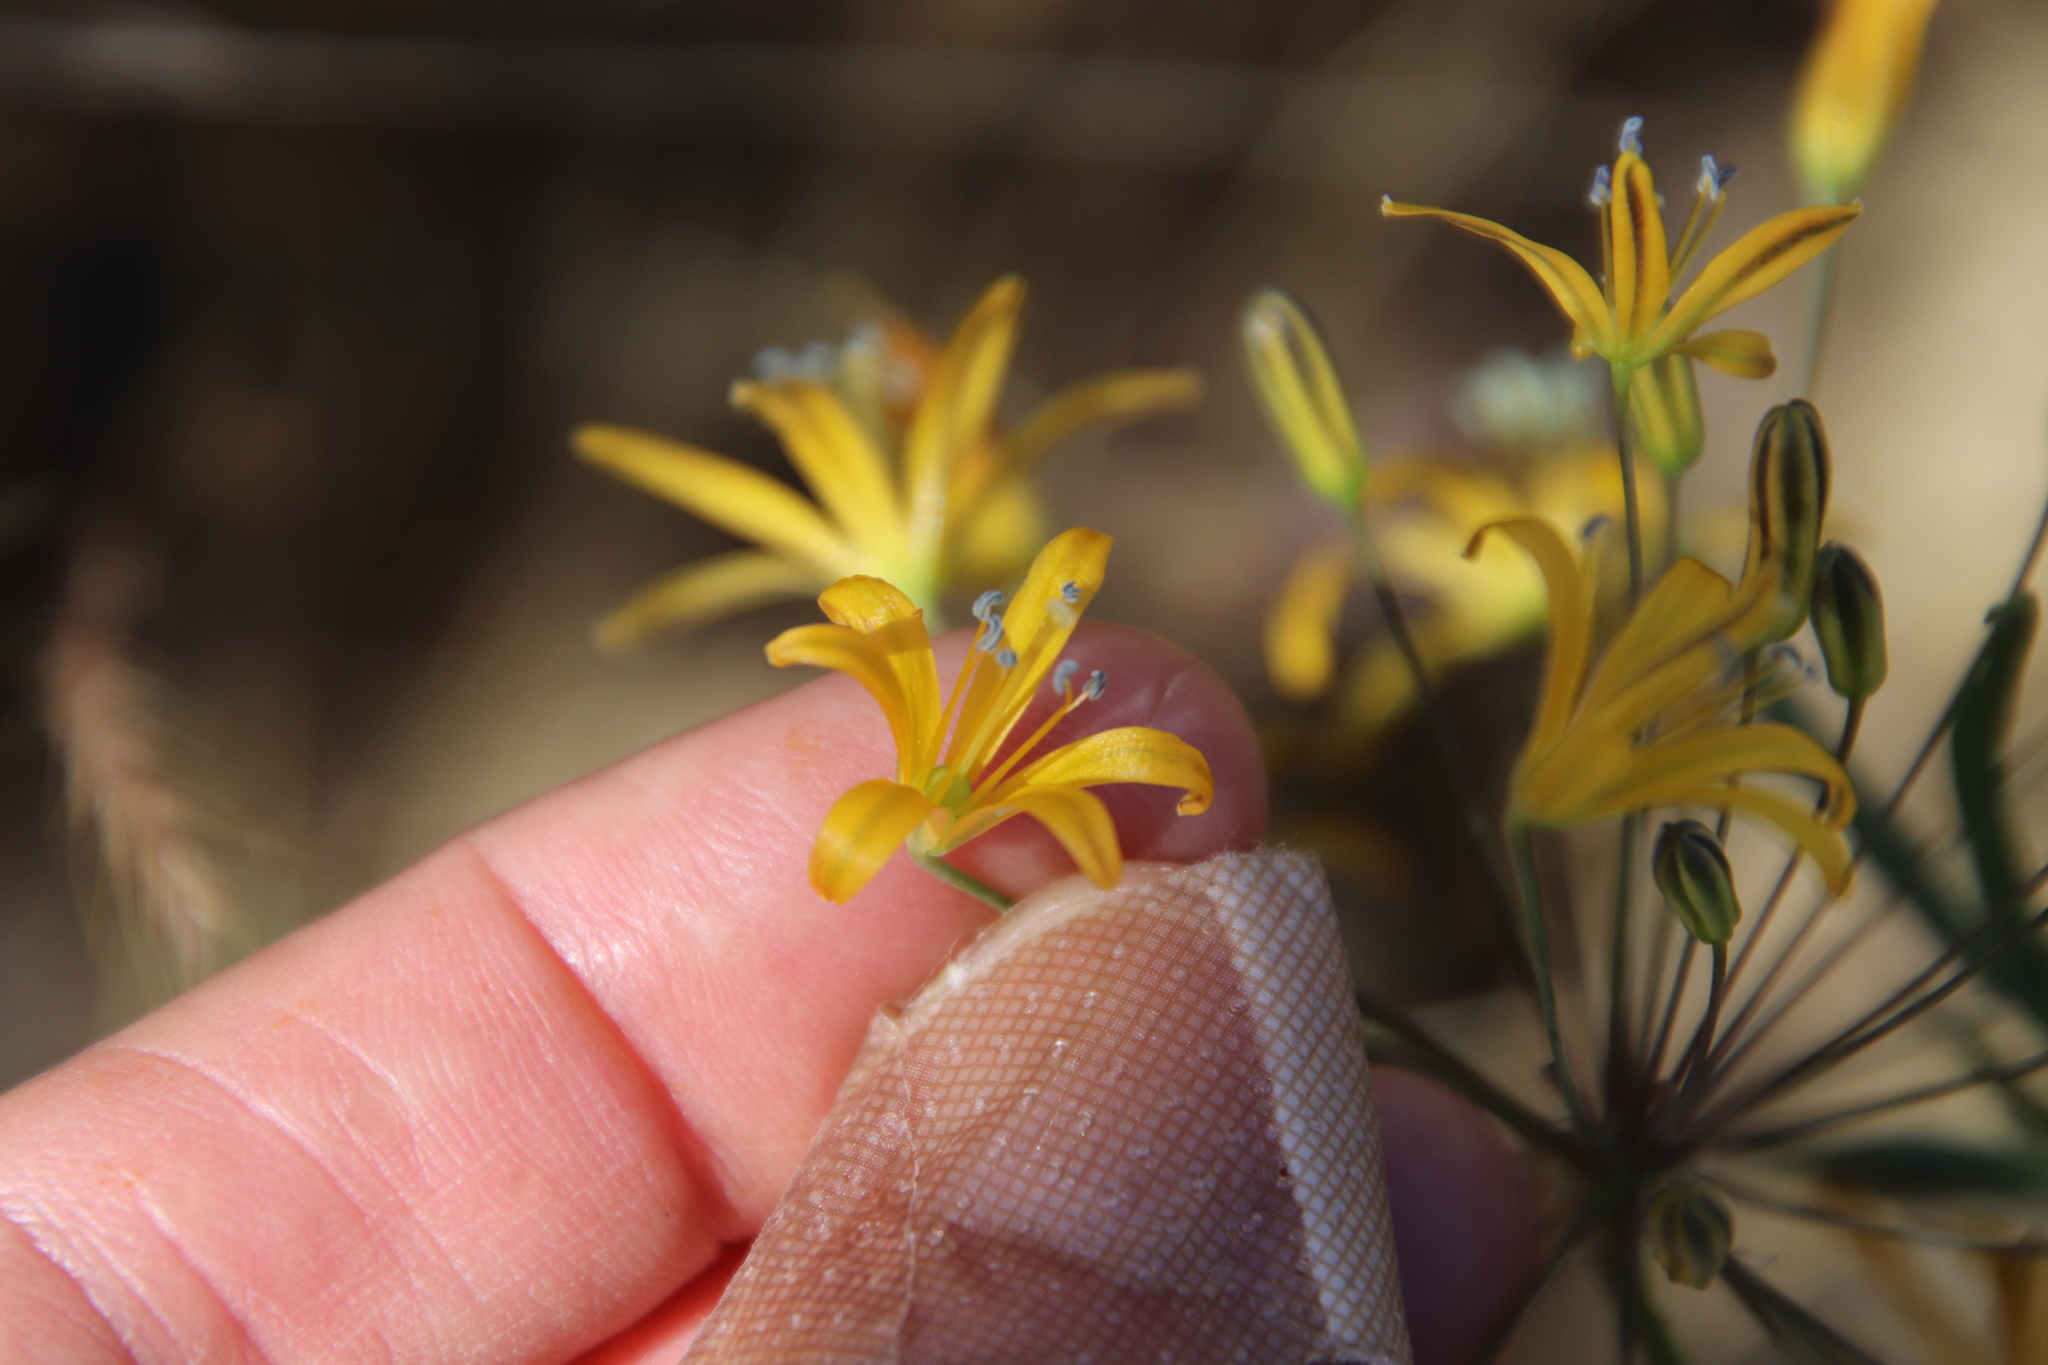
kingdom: Plantae
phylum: Tracheophyta
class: Liliopsida
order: Asparagales
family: Asparagaceae
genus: Bloomeria
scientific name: Bloomeria crocea
